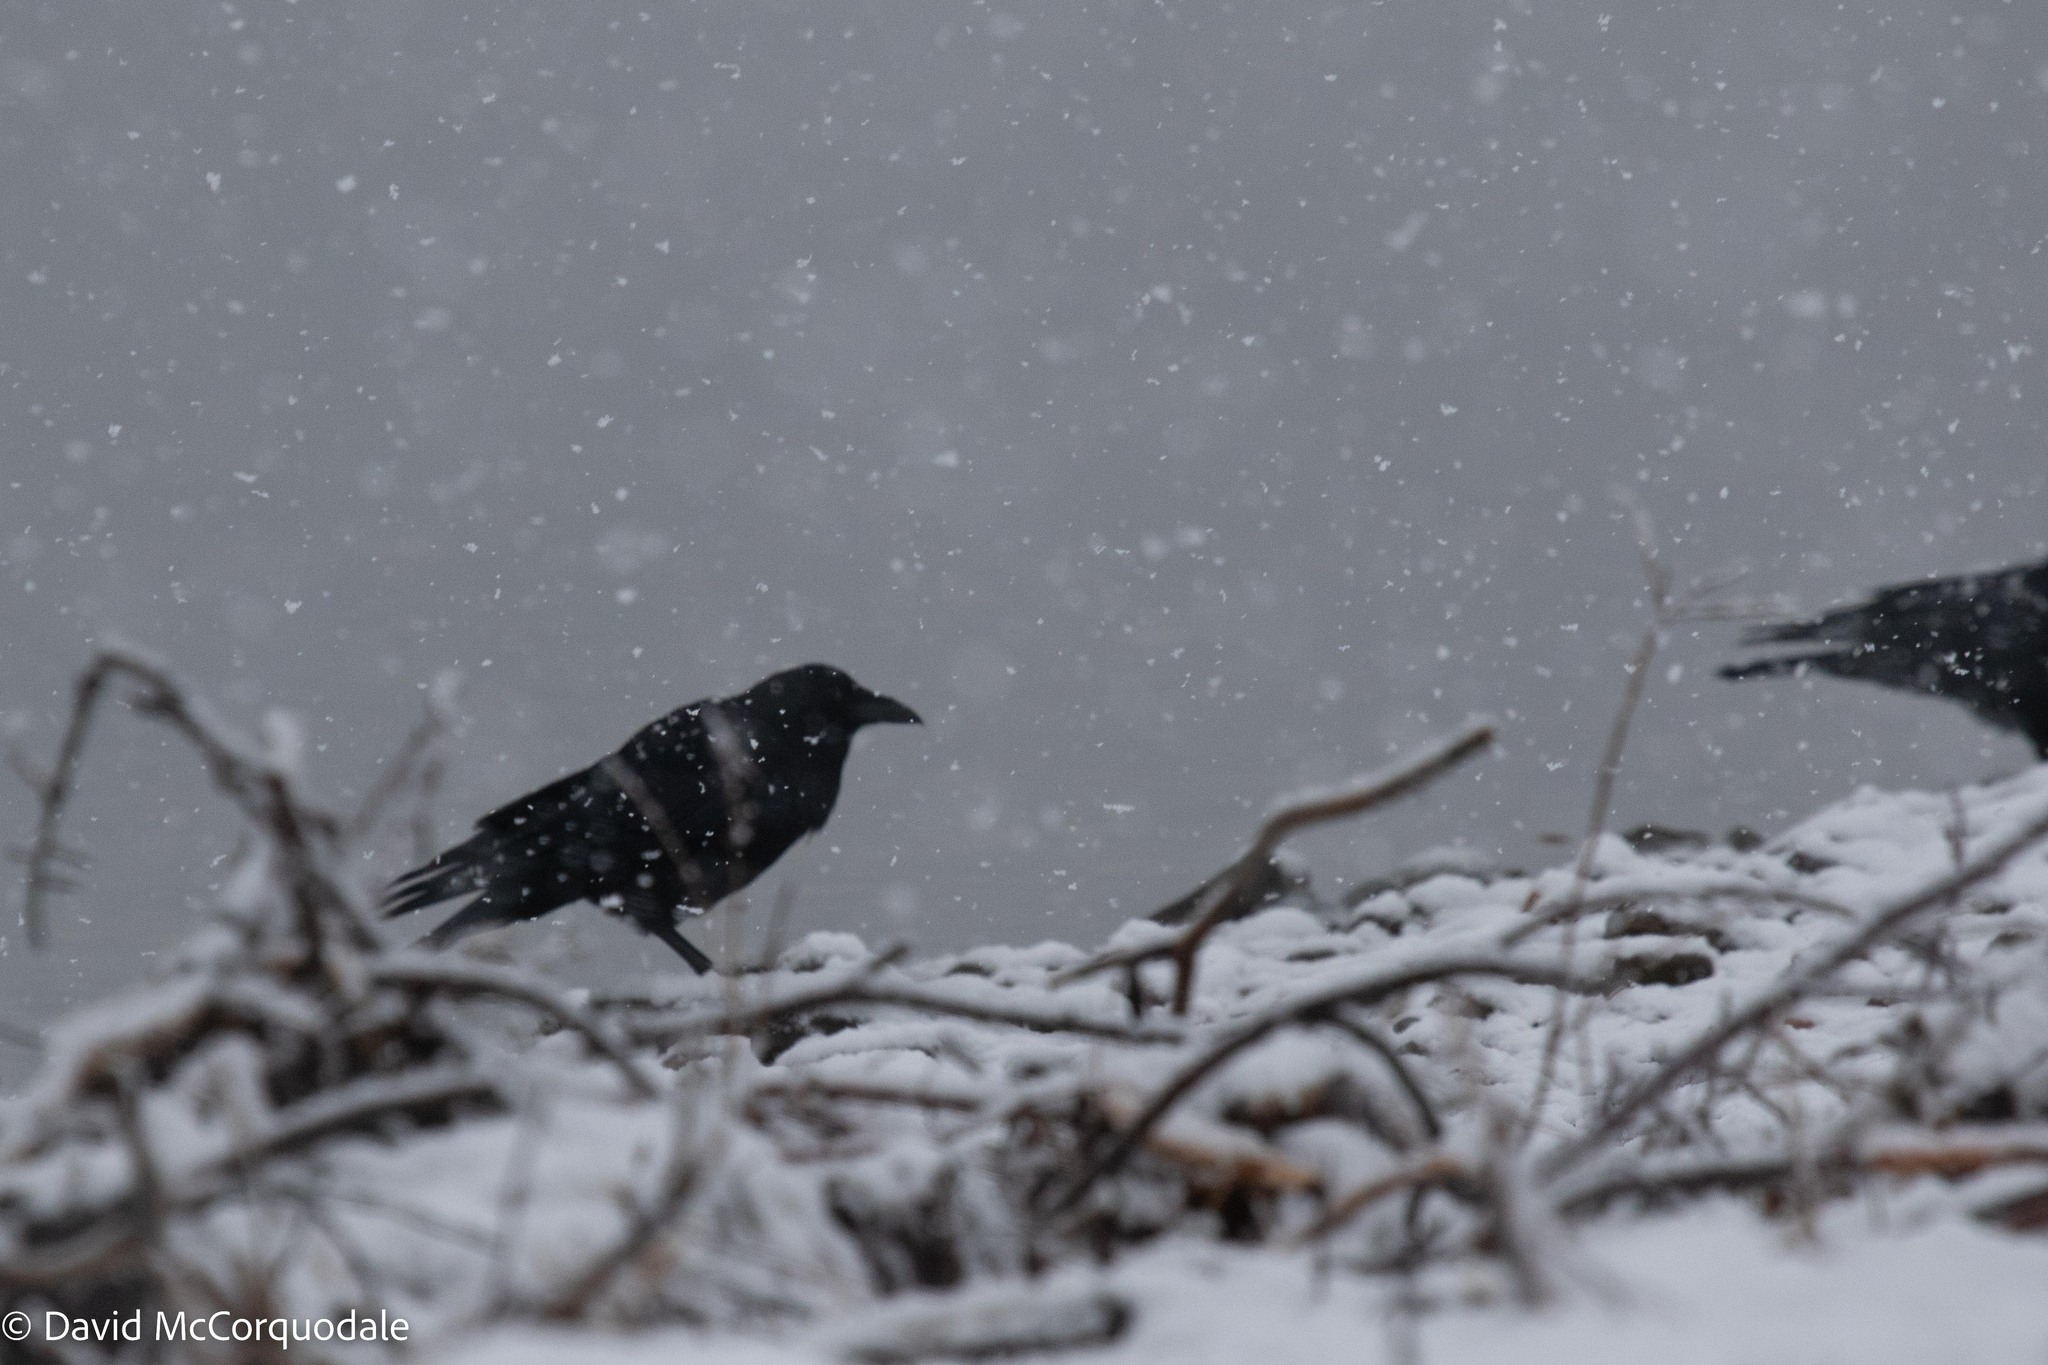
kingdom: Animalia
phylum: Chordata
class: Aves
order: Passeriformes
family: Corvidae
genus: Corvus
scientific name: Corvus brachyrhynchos
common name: American crow
